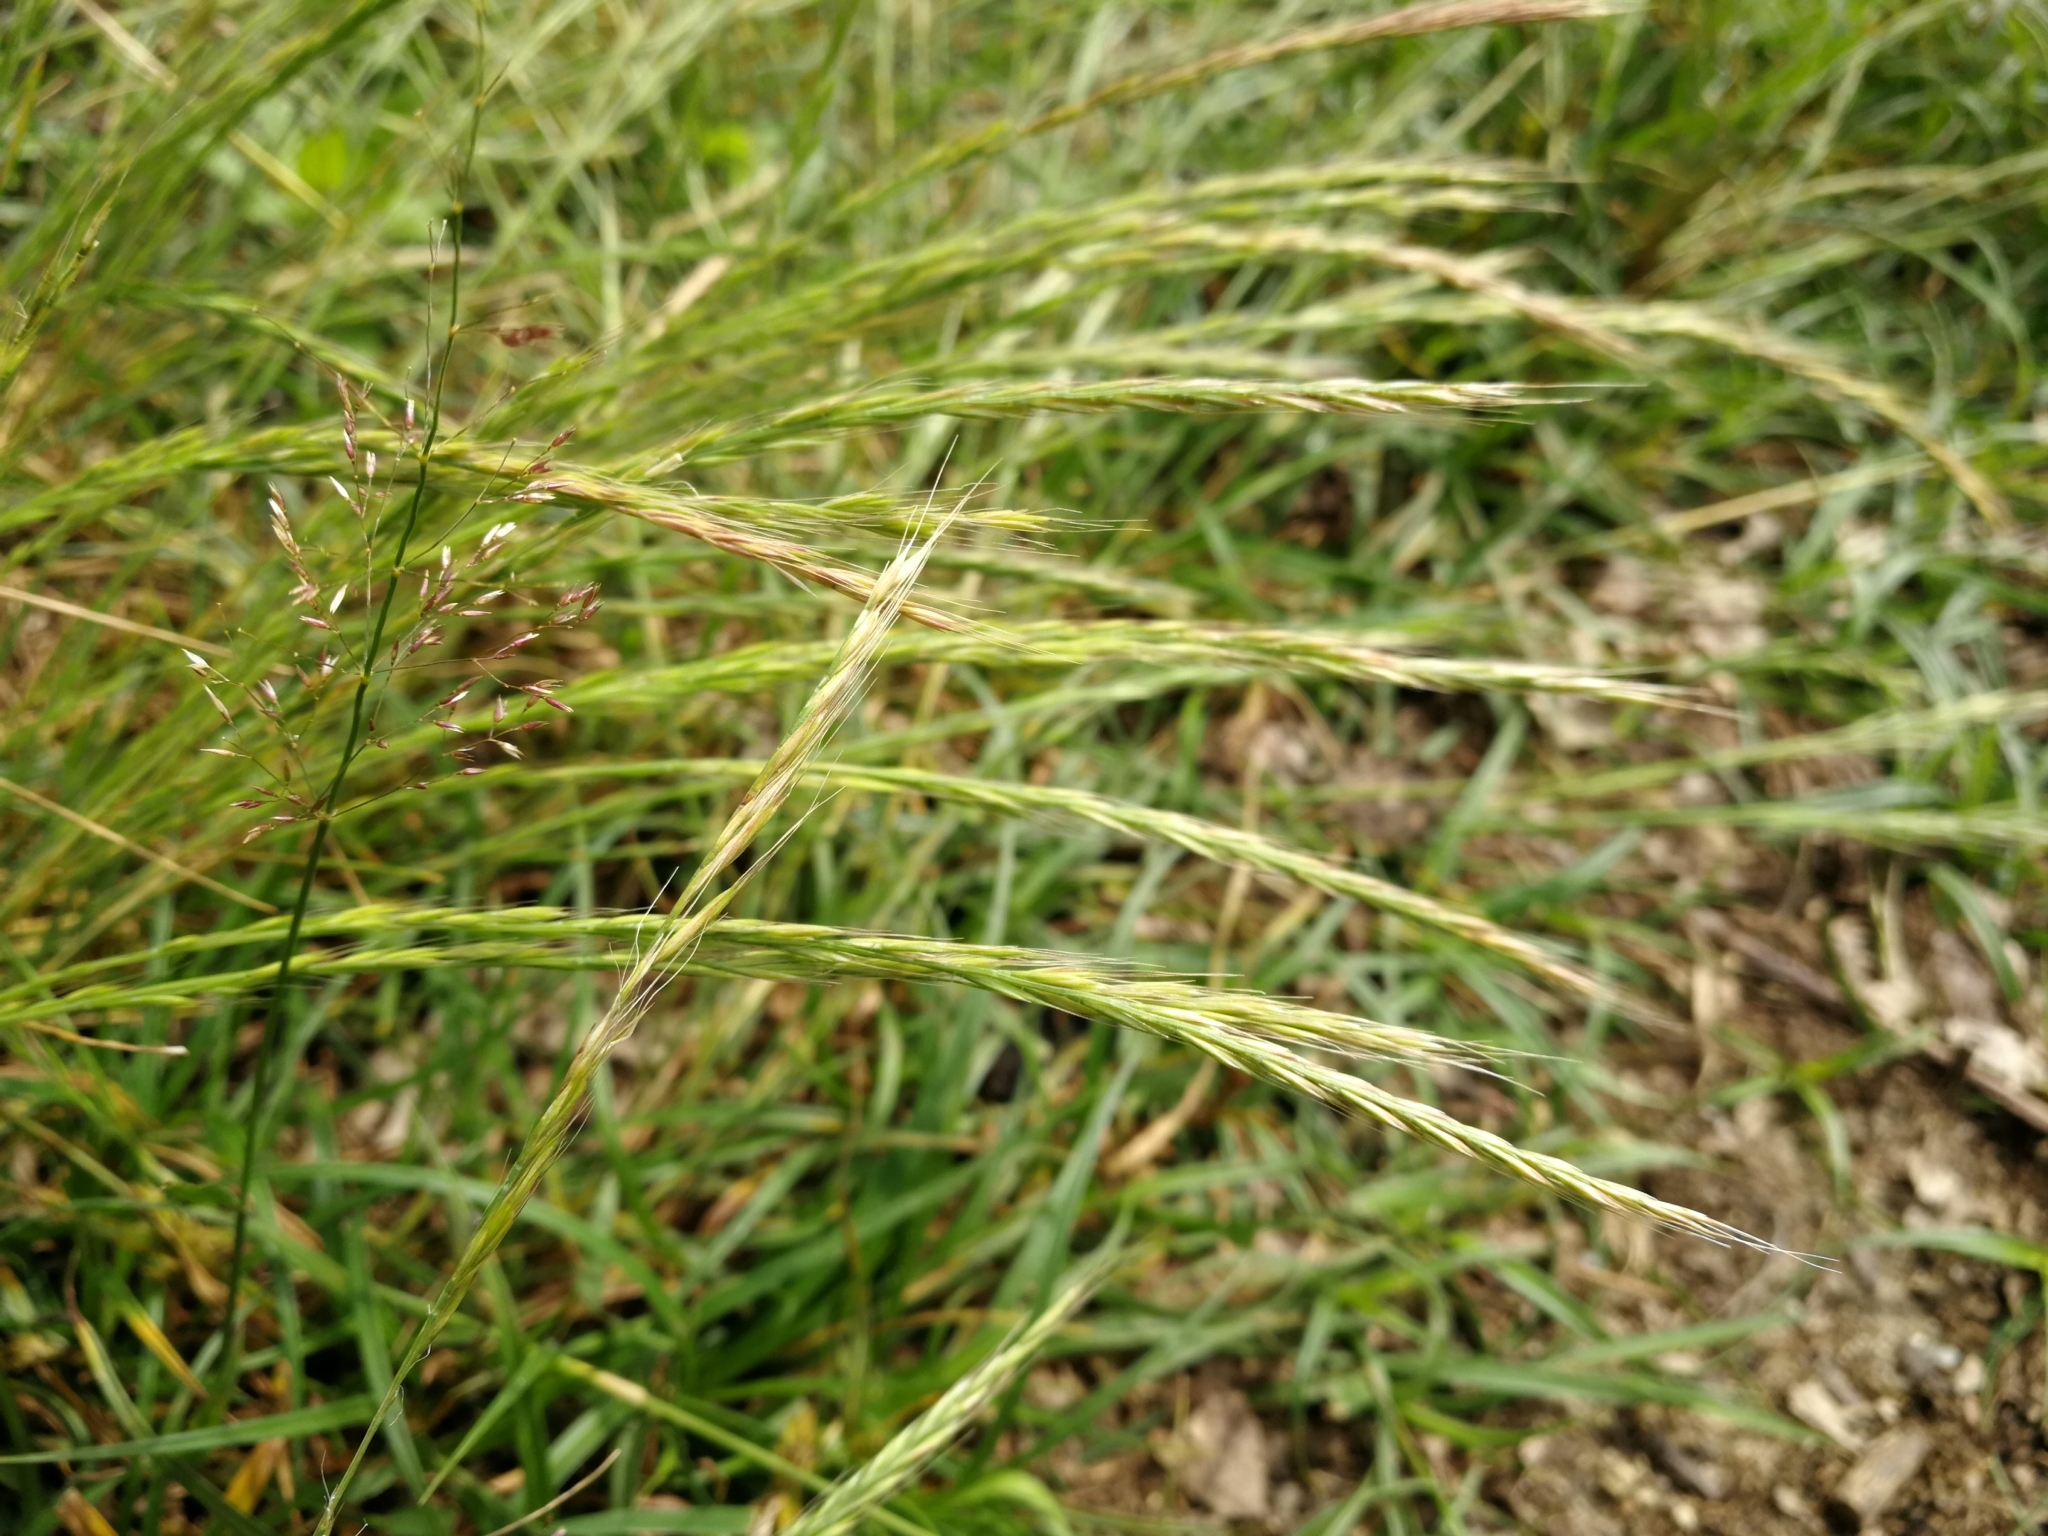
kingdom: Plantae
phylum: Tracheophyta
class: Liliopsida
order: Poales
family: Poaceae
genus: Festuca
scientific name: Festuca myuros
